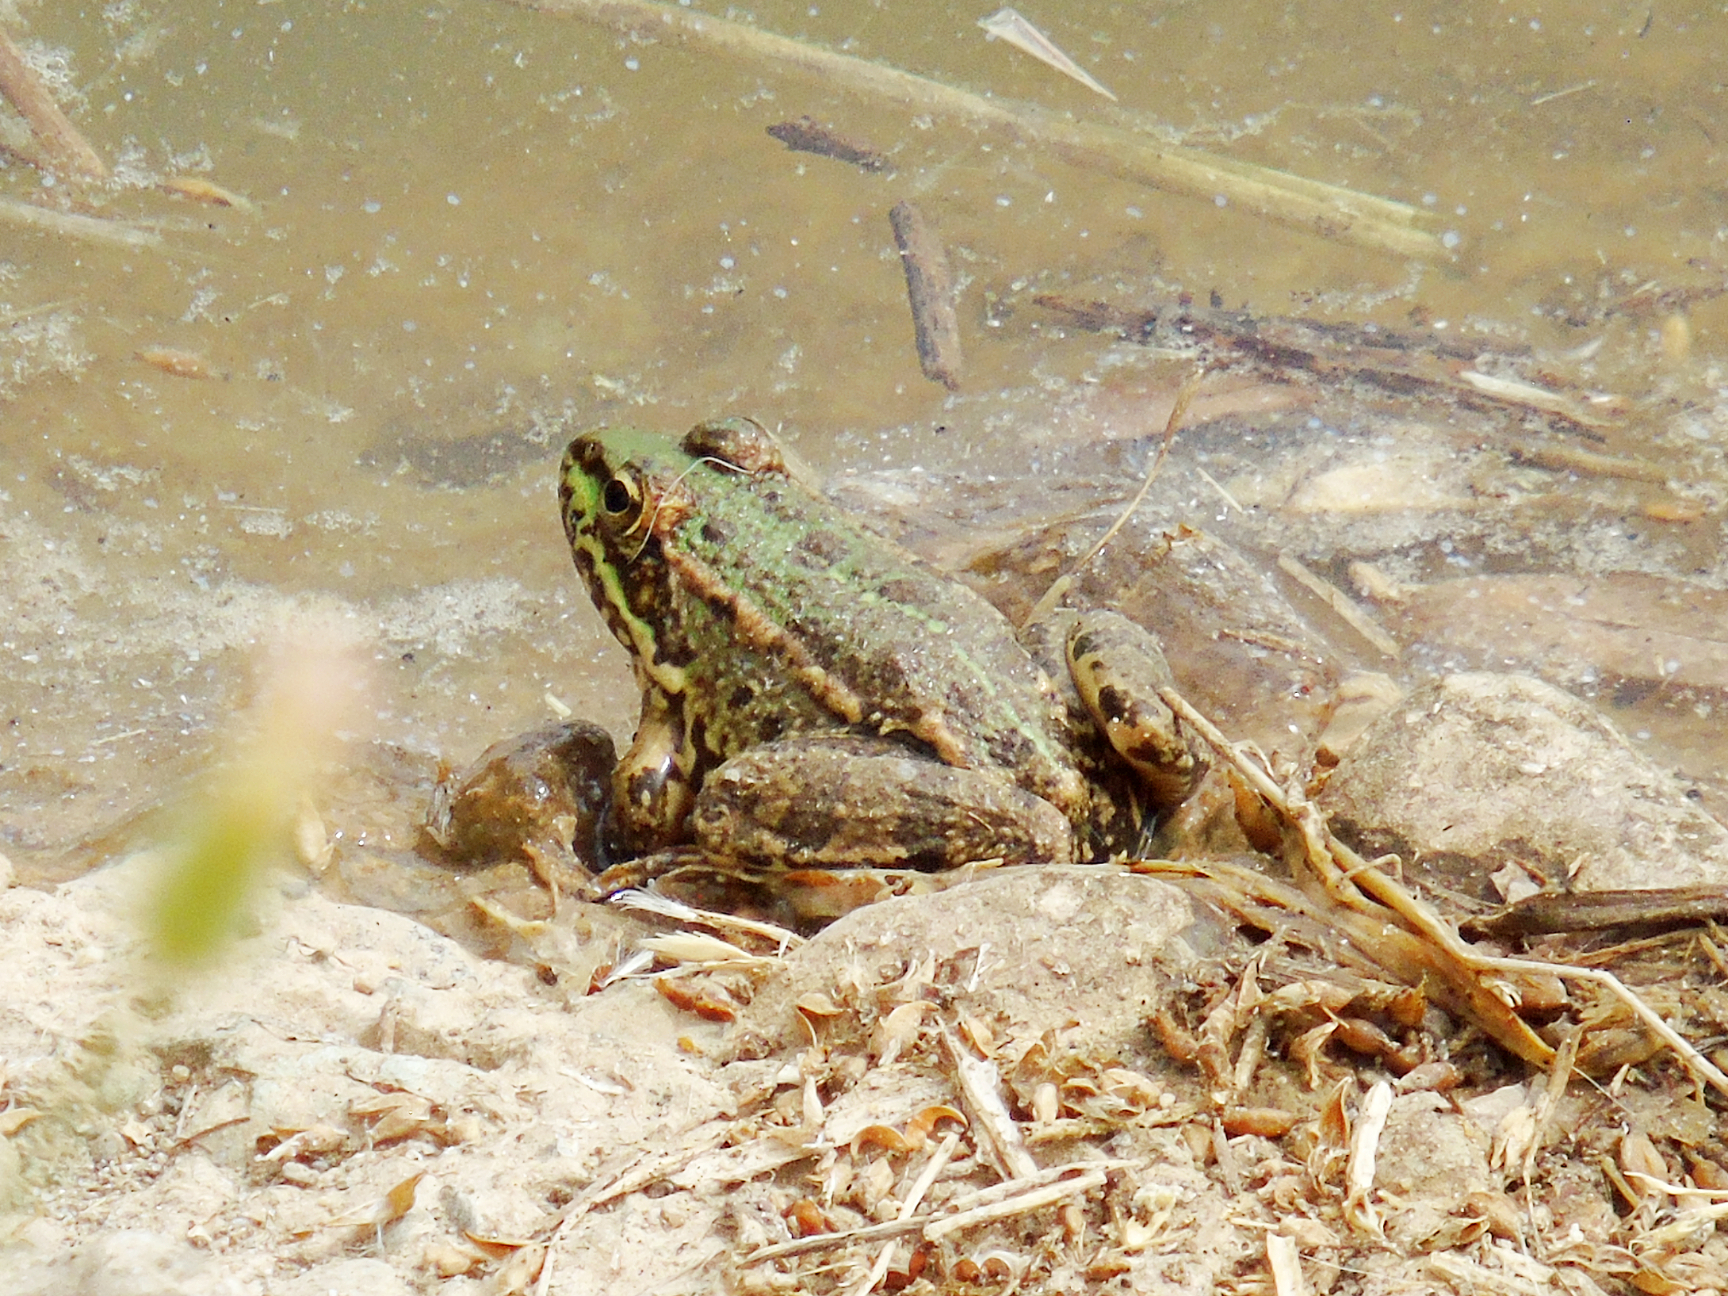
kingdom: Animalia
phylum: Chordata
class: Amphibia
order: Anura
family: Ranidae
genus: Pelophylax
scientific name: Pelophylax ridibundus
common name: Marsh frog
